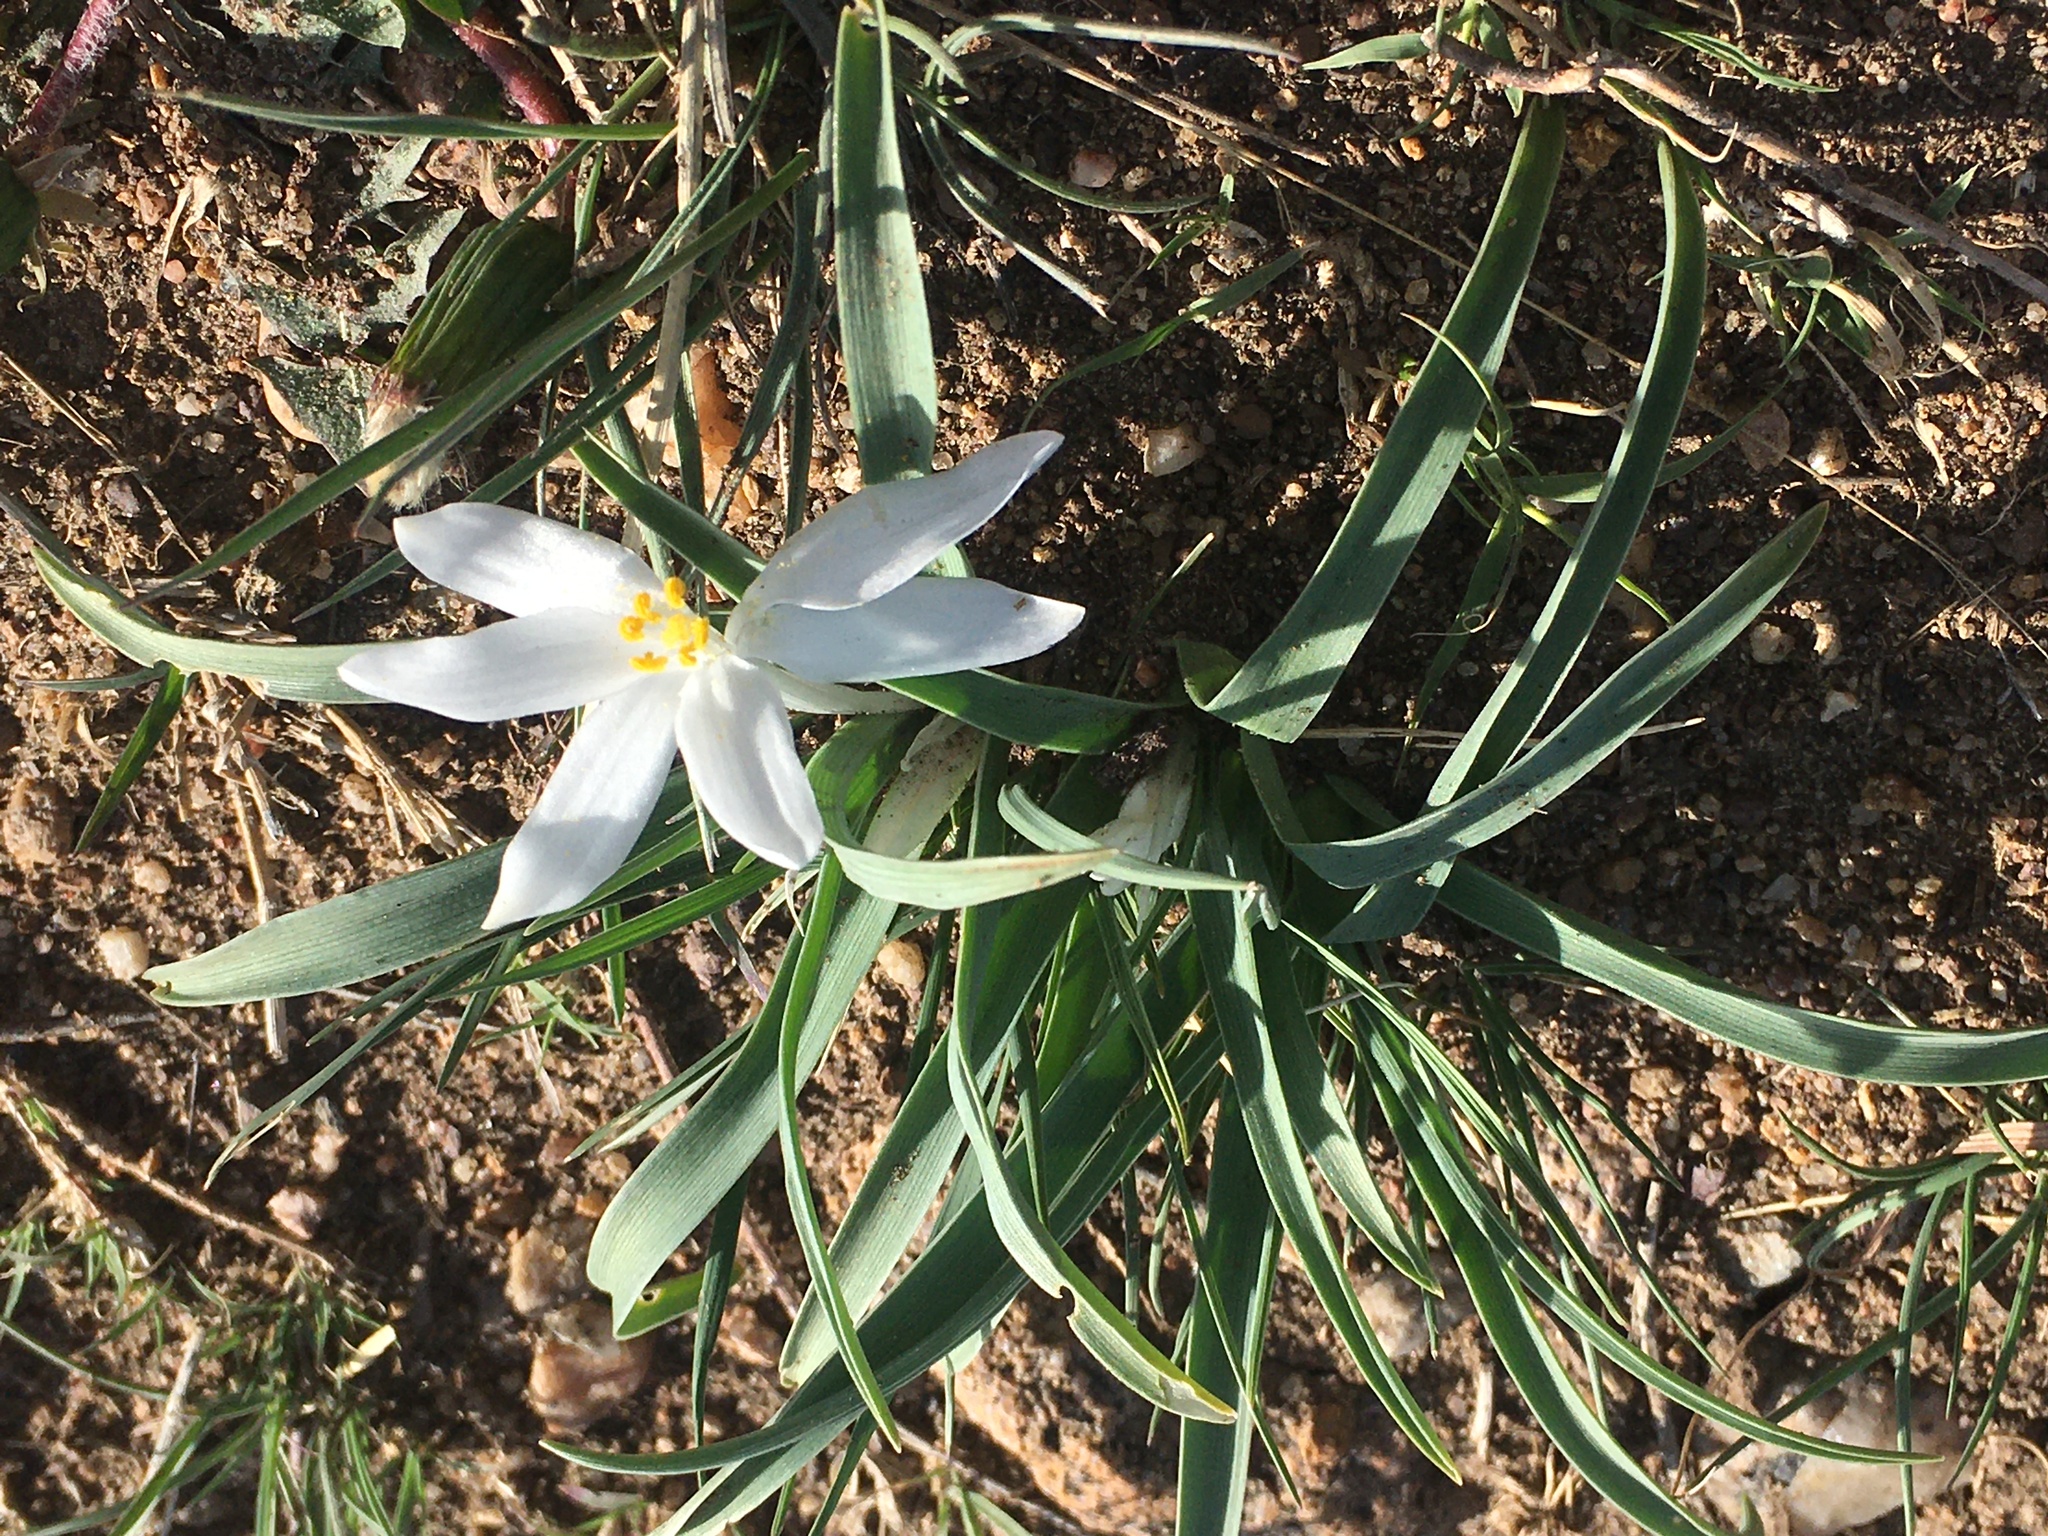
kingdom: Plantae
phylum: Tracheophyta
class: Liliopsida
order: Asparagales
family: Asparagaceae
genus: Leucocrinum
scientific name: Leucocrinum montanum
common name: Mountain-lily
